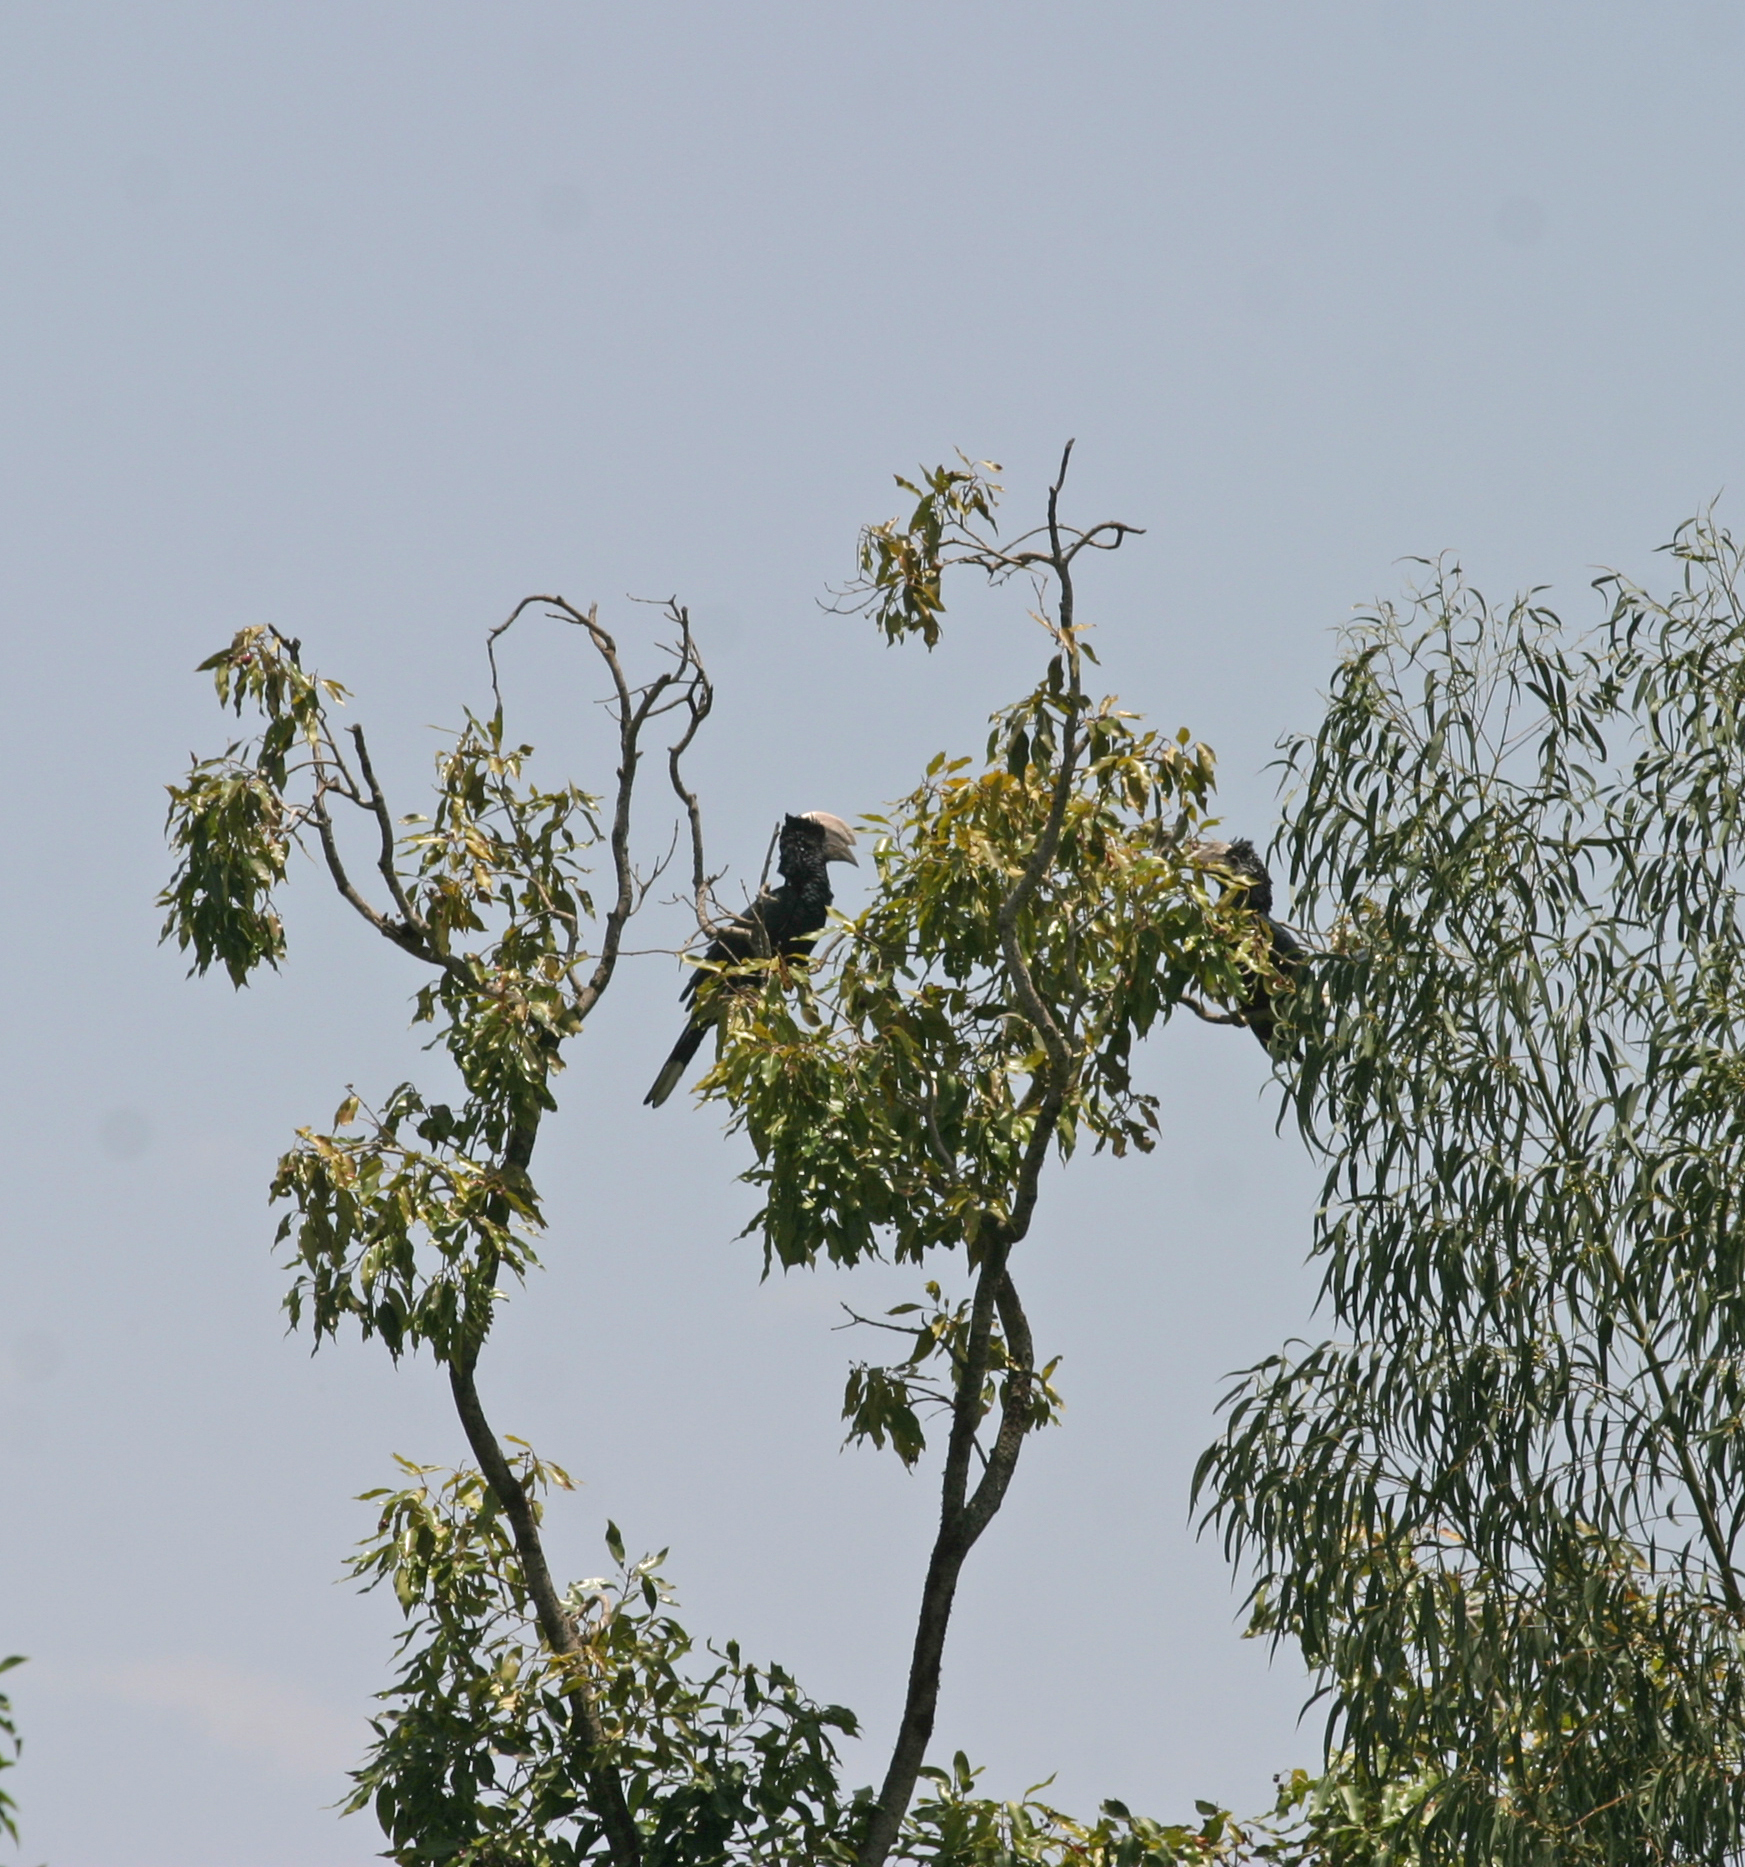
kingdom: Animalia
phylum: Chordata
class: Aves
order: Bucerotiformes
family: Bucerotidae
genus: Bycanistes
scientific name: Bycanistes brevis
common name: Silvery-cheeked hornbill
